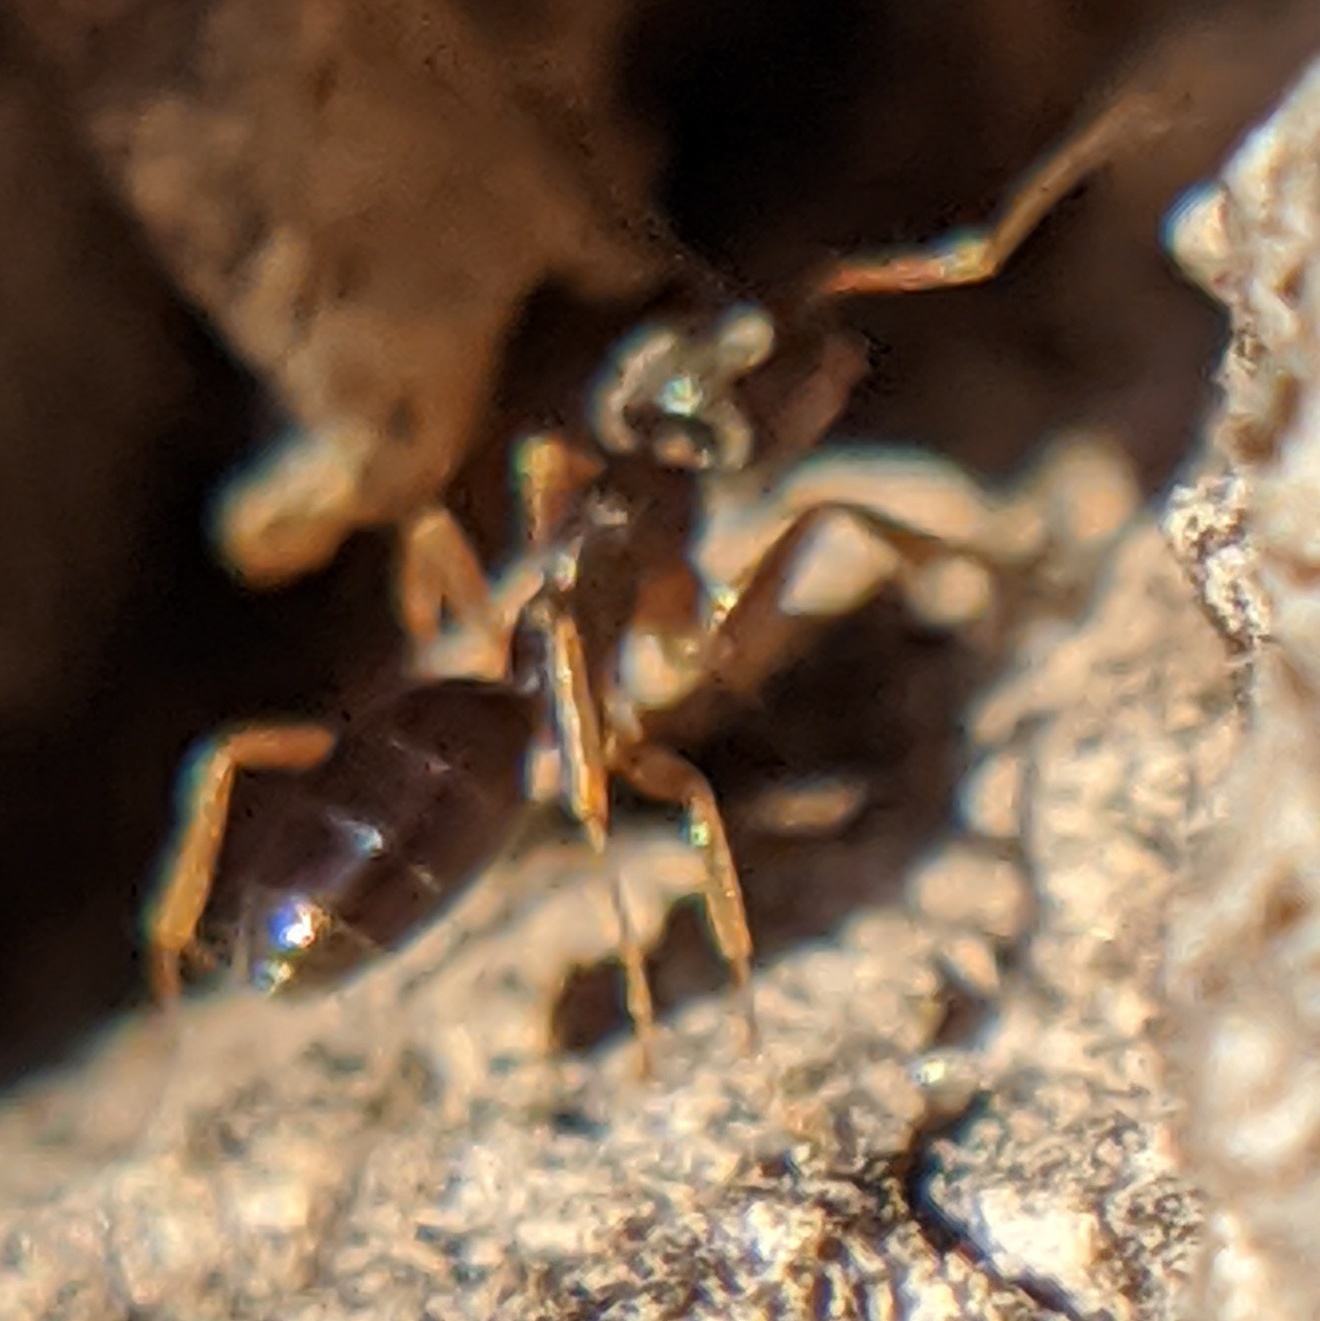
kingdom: Animalia
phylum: Arthropoda
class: Insecta
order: Hymenoptera
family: Formicidae
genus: Tapinoma
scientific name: Tapinoma sessile
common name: Odorous house ant
